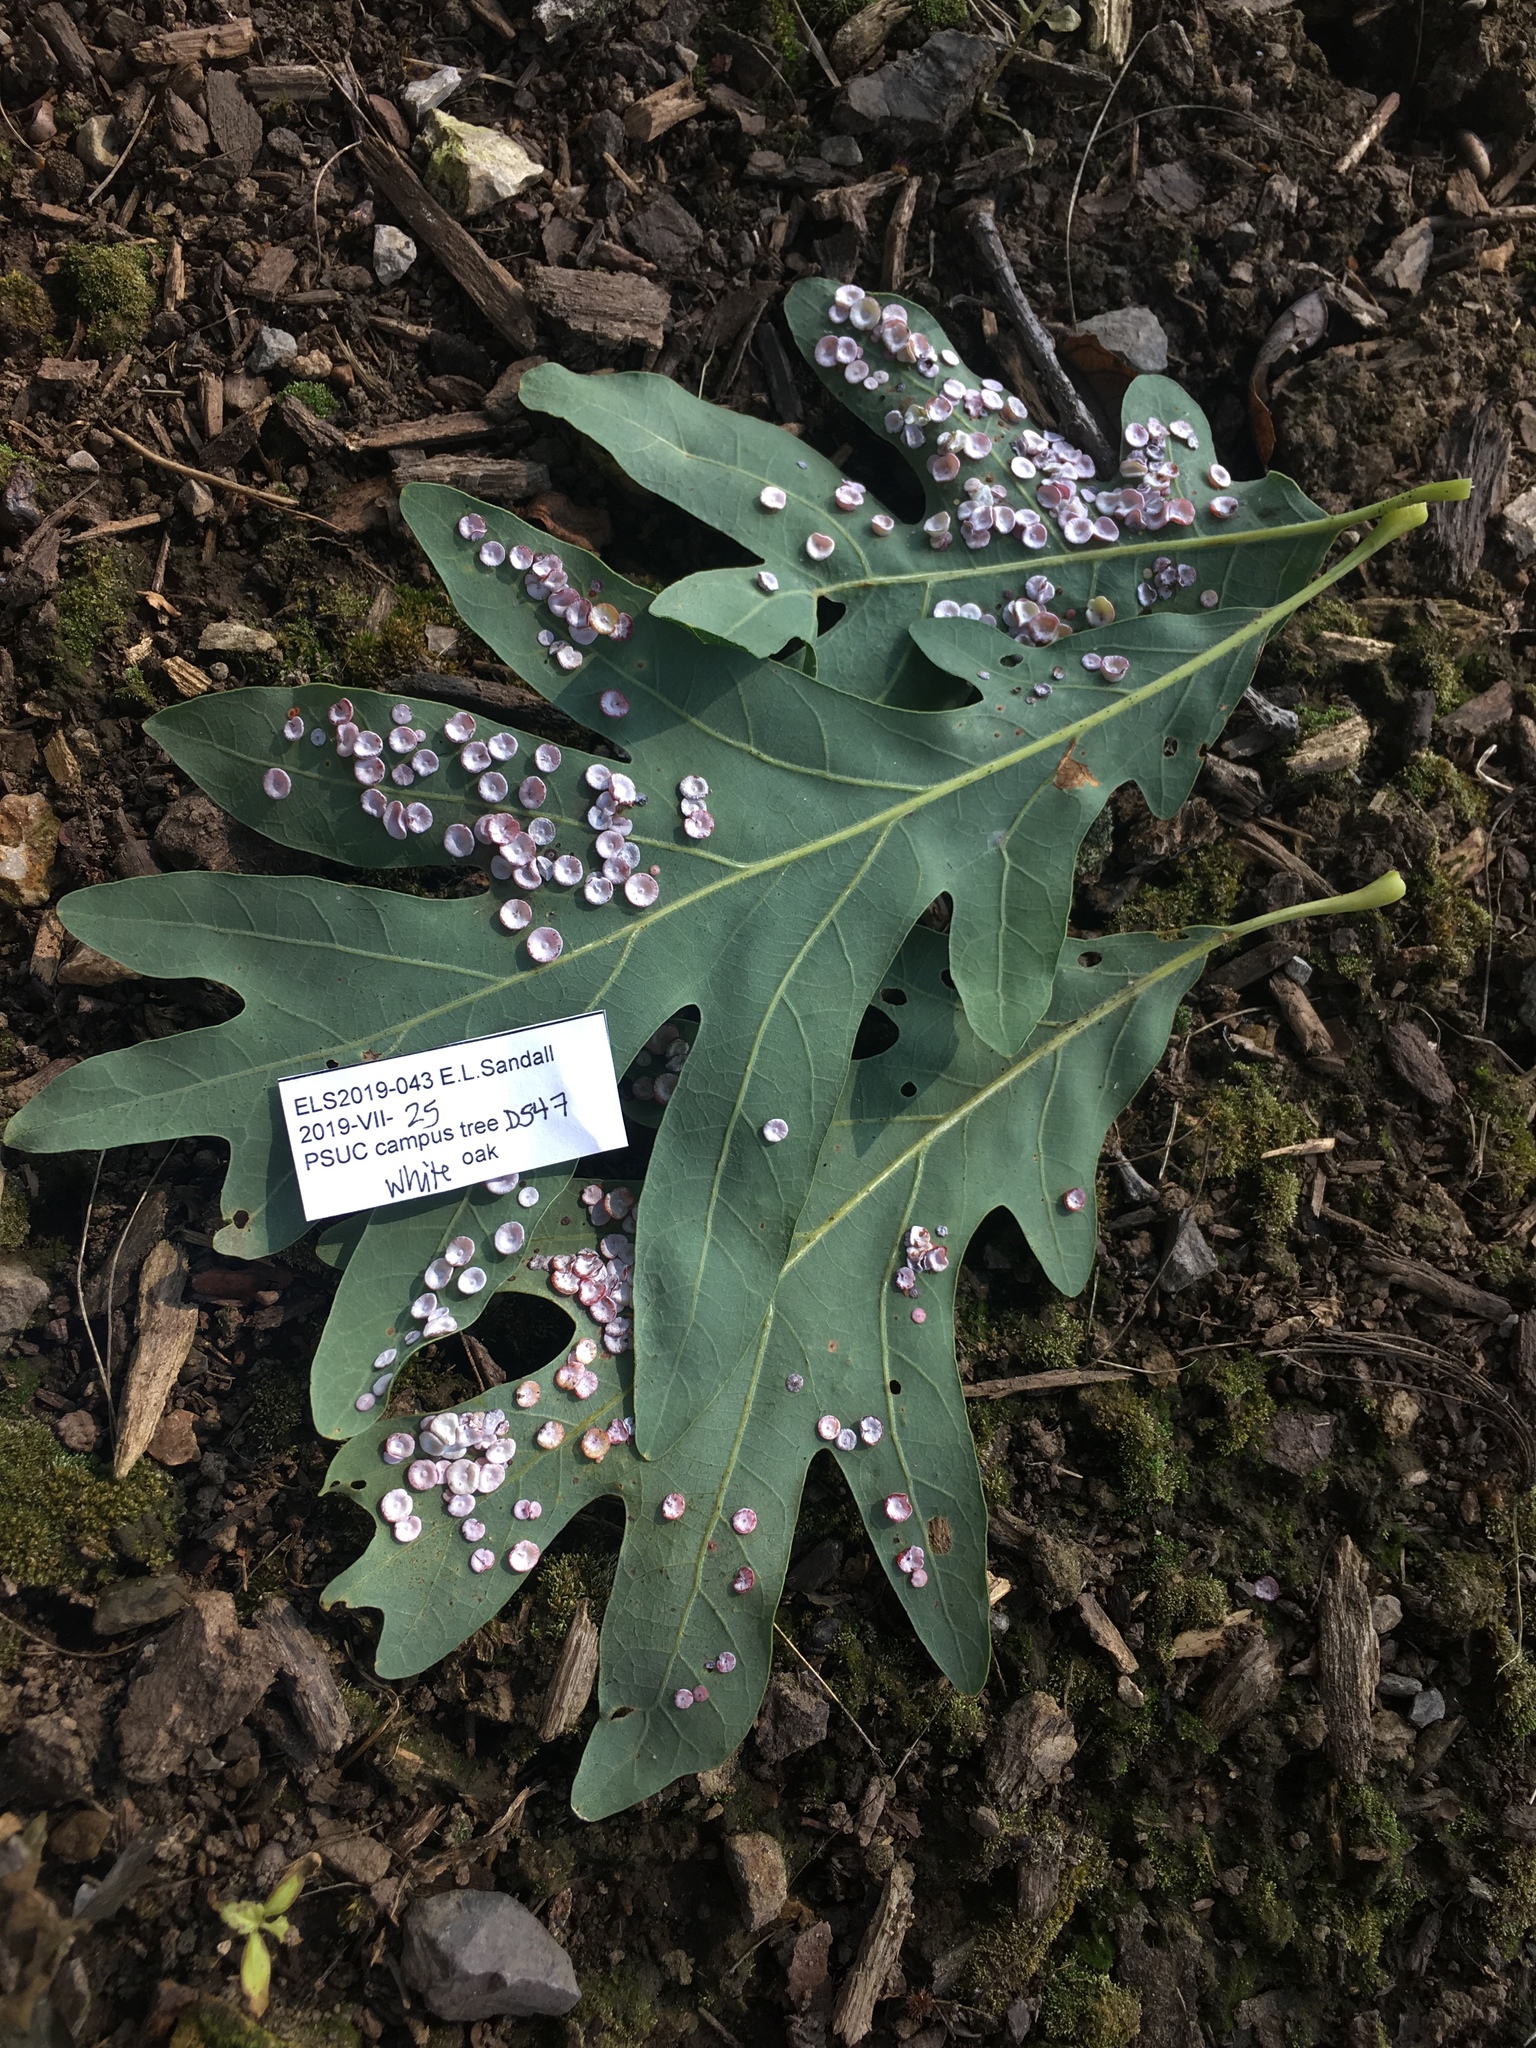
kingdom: Animalia
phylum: Arthropoda
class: Insecta
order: Hymenoptera
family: Cynipidae
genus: Phylloteras
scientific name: Phylloteras poculum
